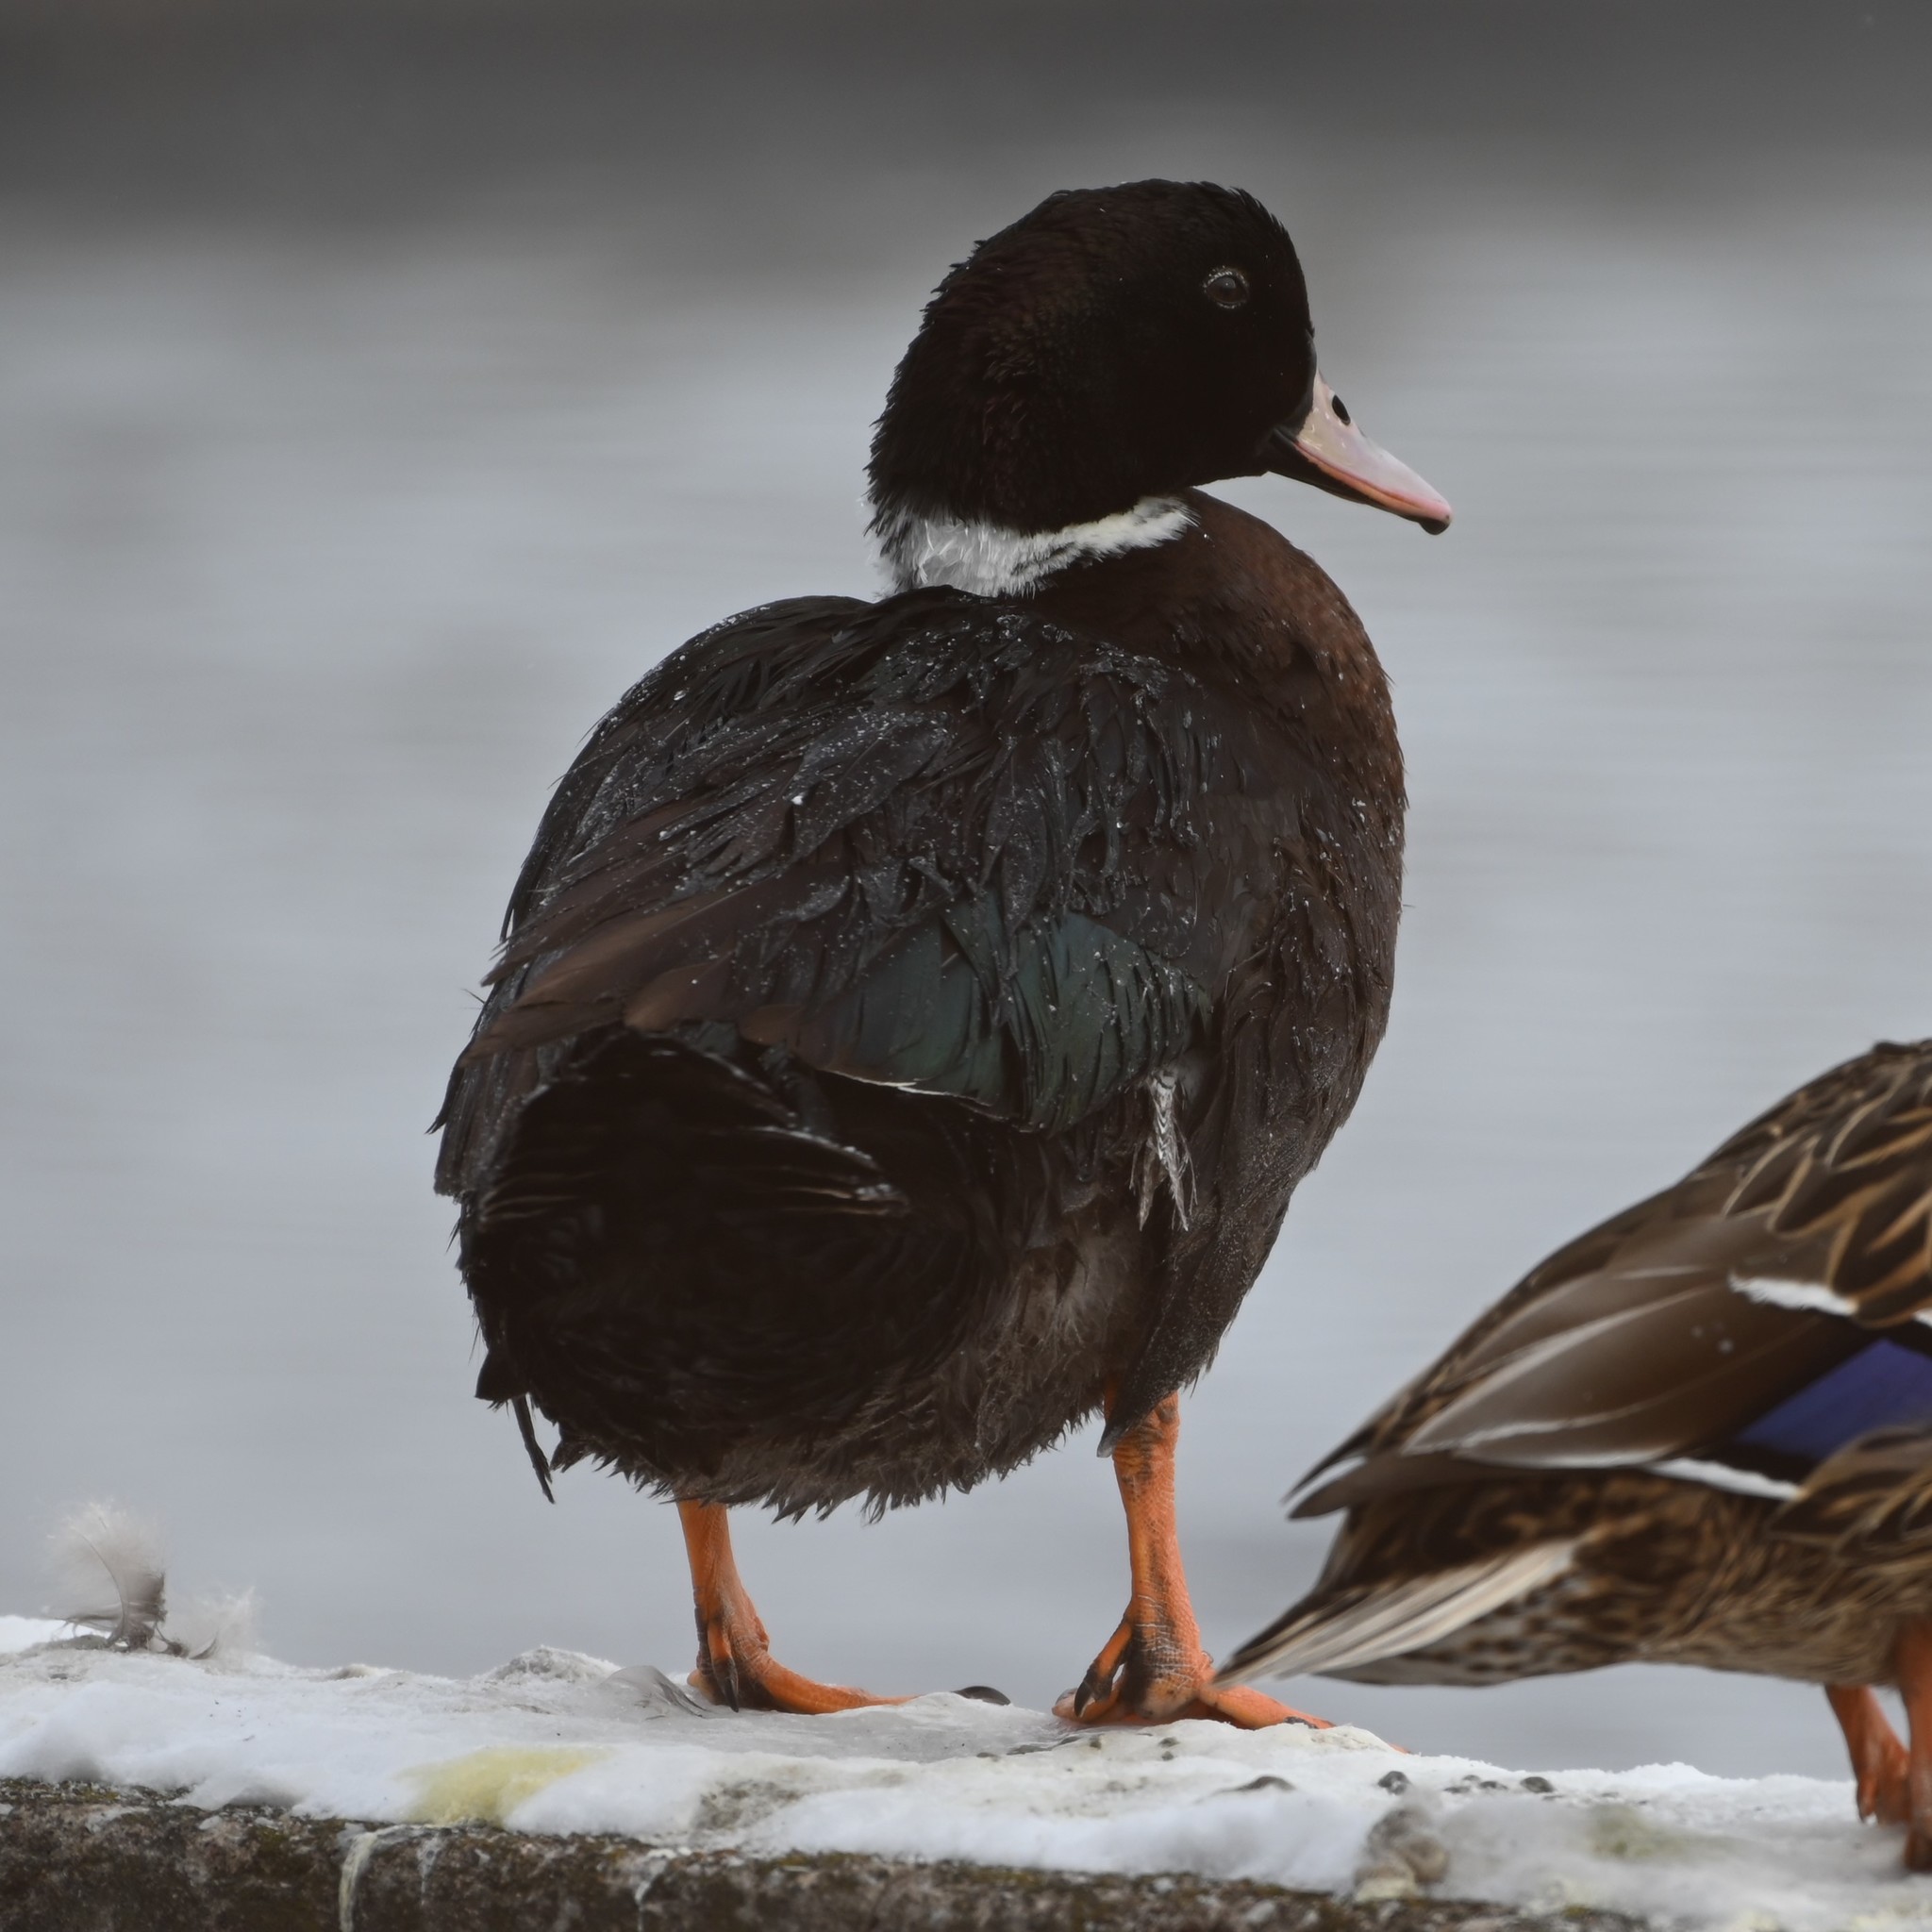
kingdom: Animalia
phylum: Chordata
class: Aves
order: Anseriformes
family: Anatidae
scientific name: Anatidae
